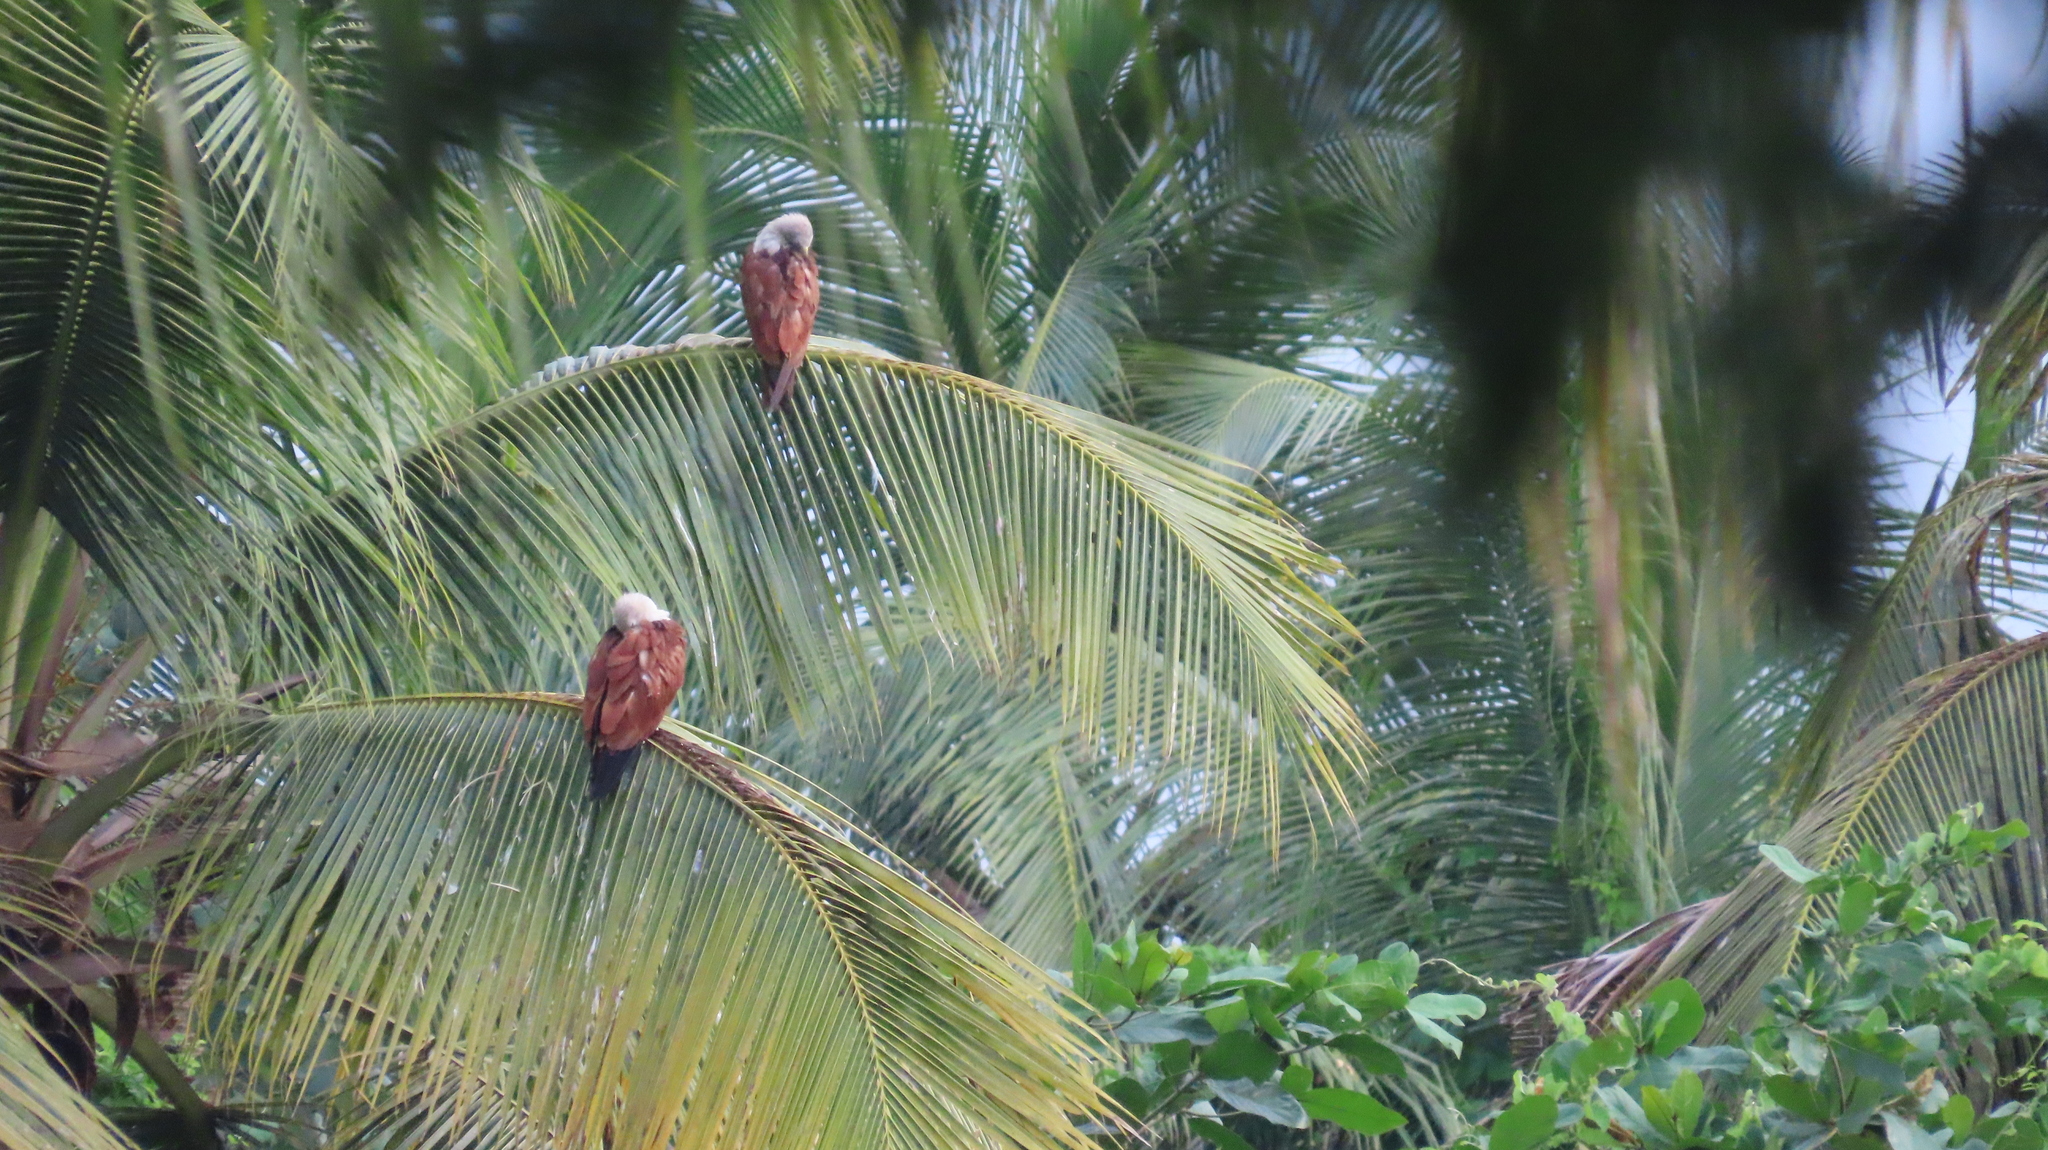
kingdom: Animalia
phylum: Chordata
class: Aves
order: Accipitriformes
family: Accipitridae
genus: Haliastur
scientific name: Haliastur indus
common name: Brahminy kite
